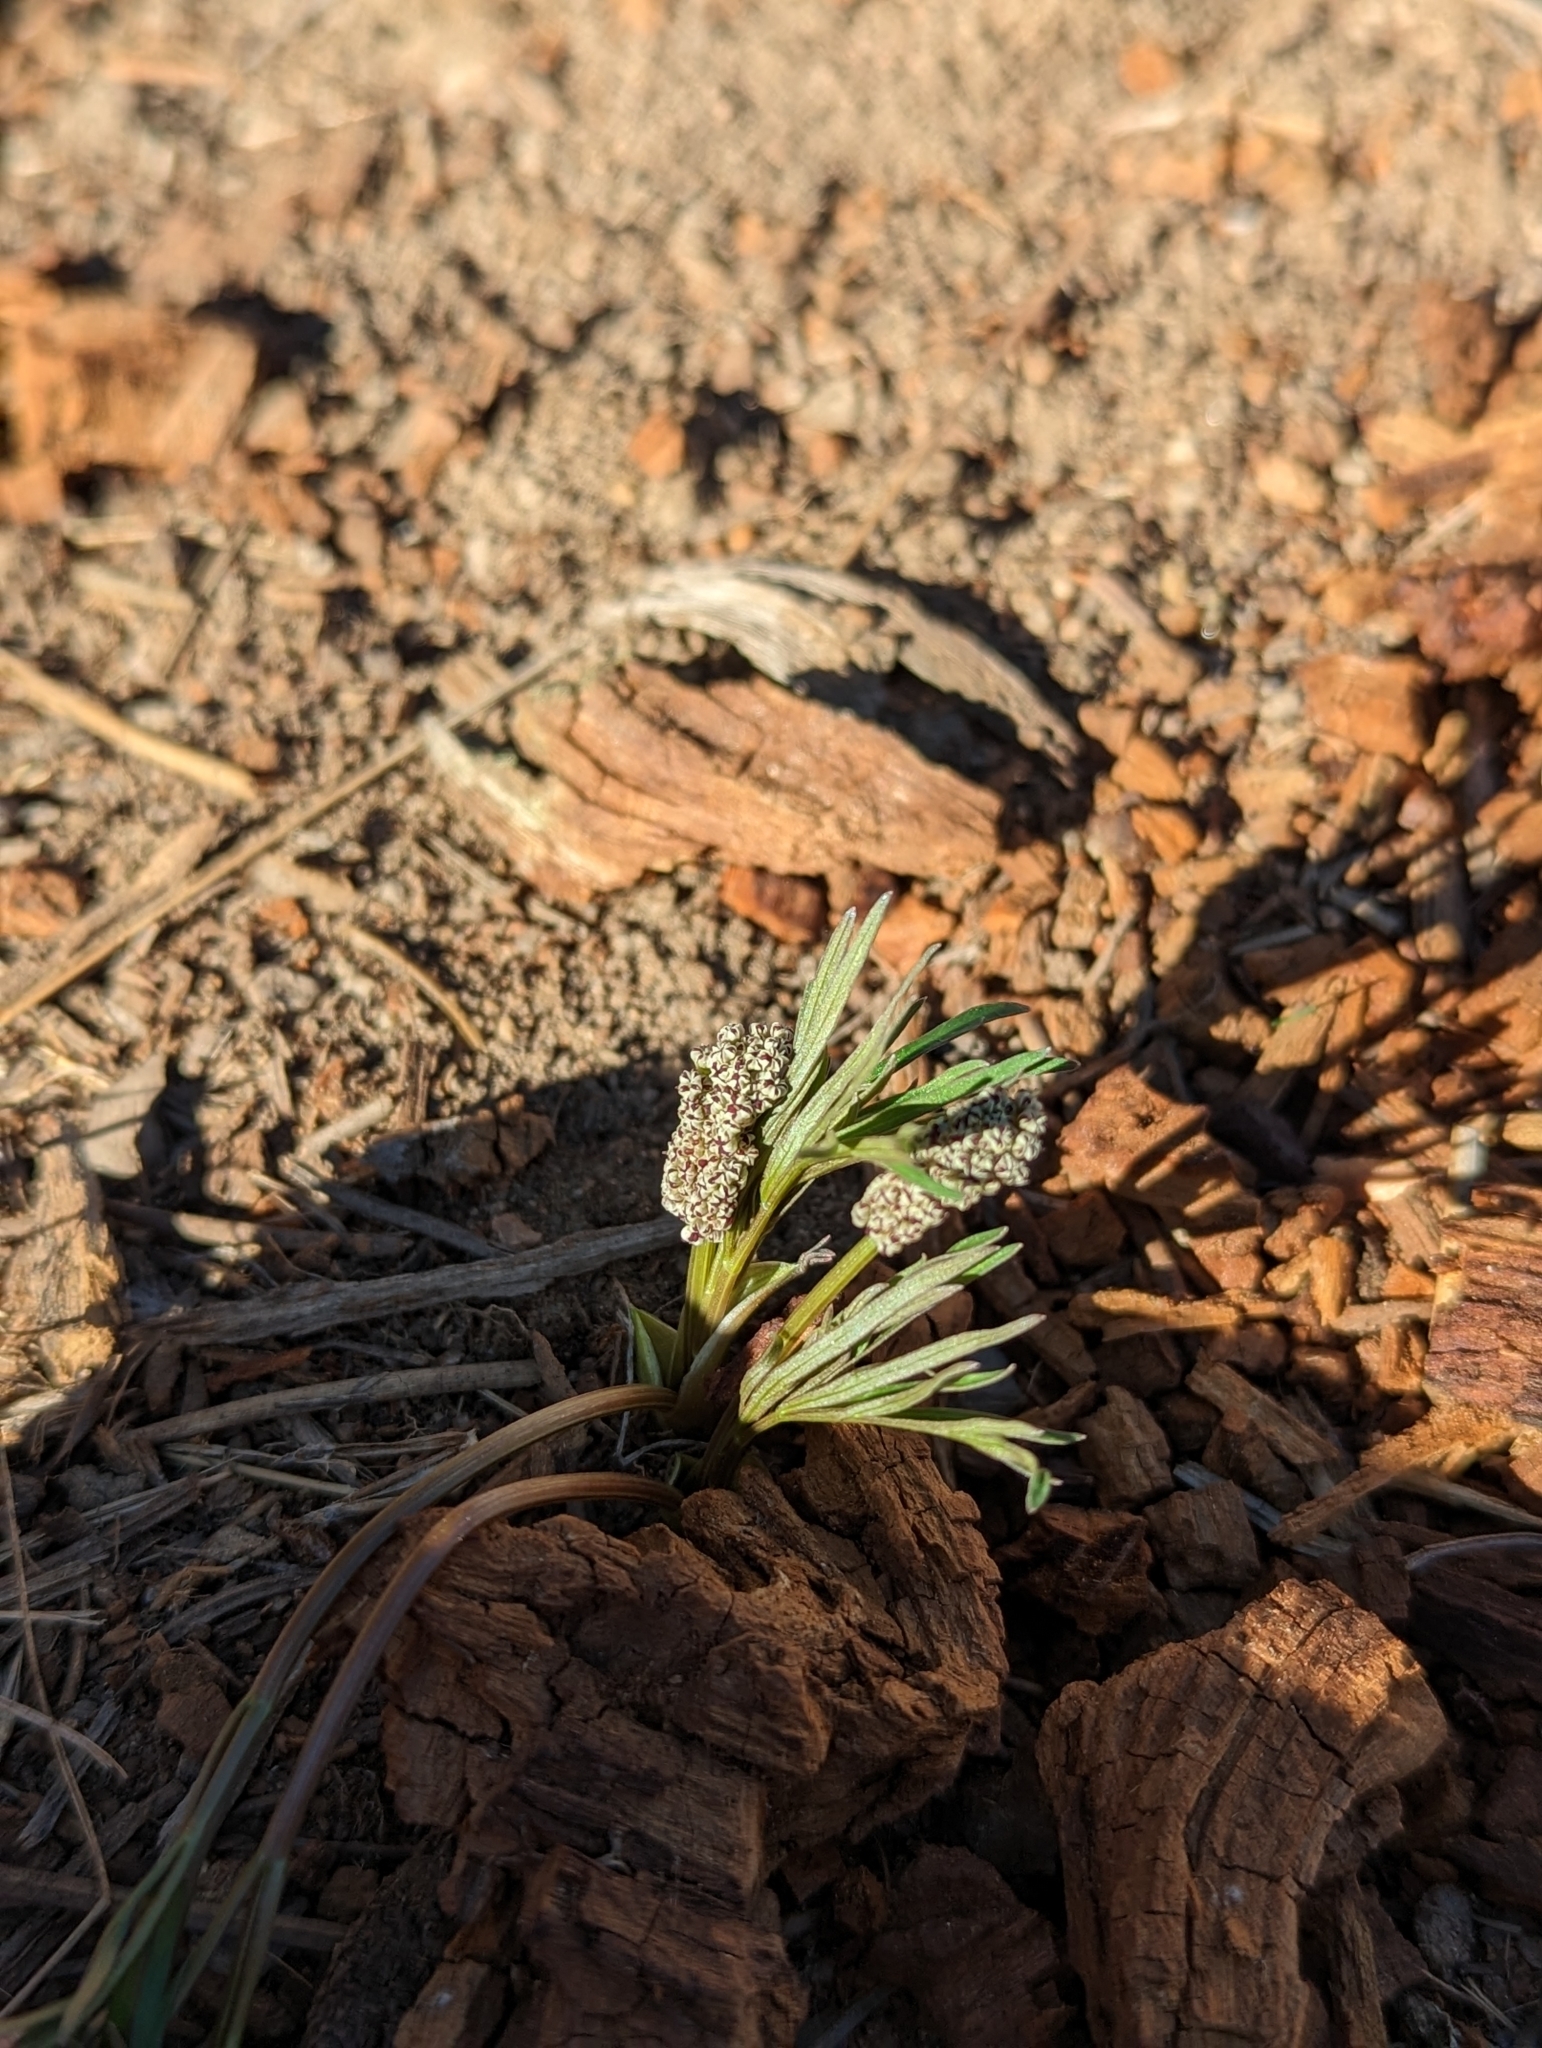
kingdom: Plantae
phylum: Tracheophyta
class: Magnoliopsida
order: Apiales
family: Apiaceae
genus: Lomatium
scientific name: Lomatium geyeri
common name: Geyer's biscuitroot
